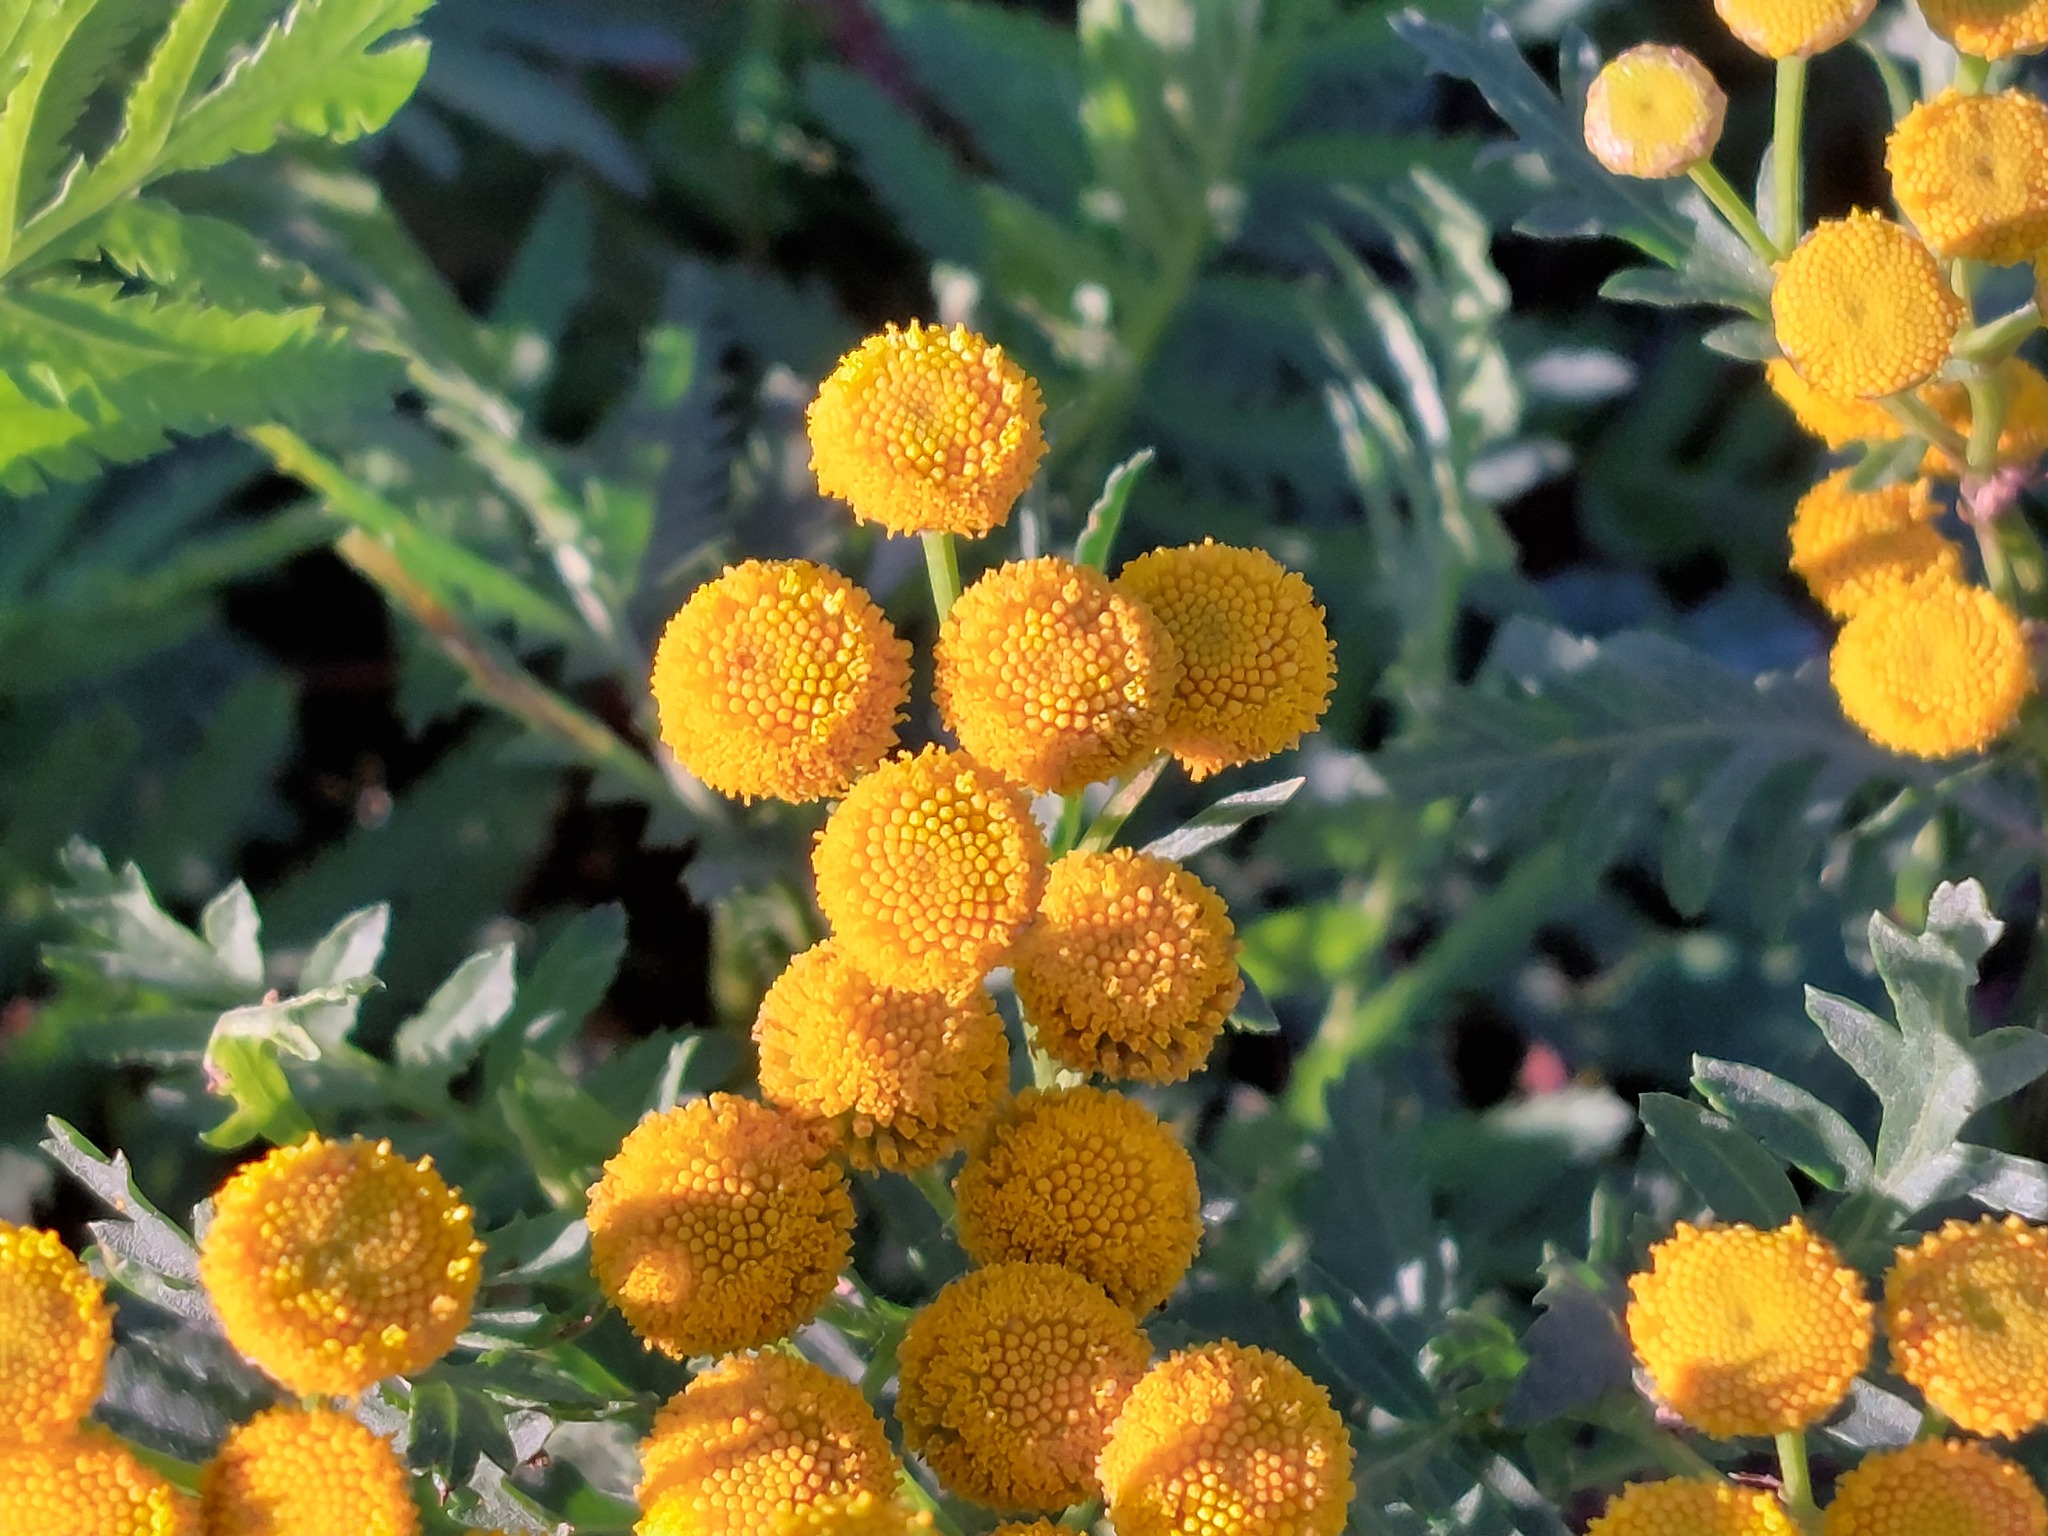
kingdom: Plantae
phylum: Tracheophyta
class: Magnoliopsida
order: Asterales
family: Asteraceae
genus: Tanacetum
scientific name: Tanacetum vulgare
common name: Common tansy
